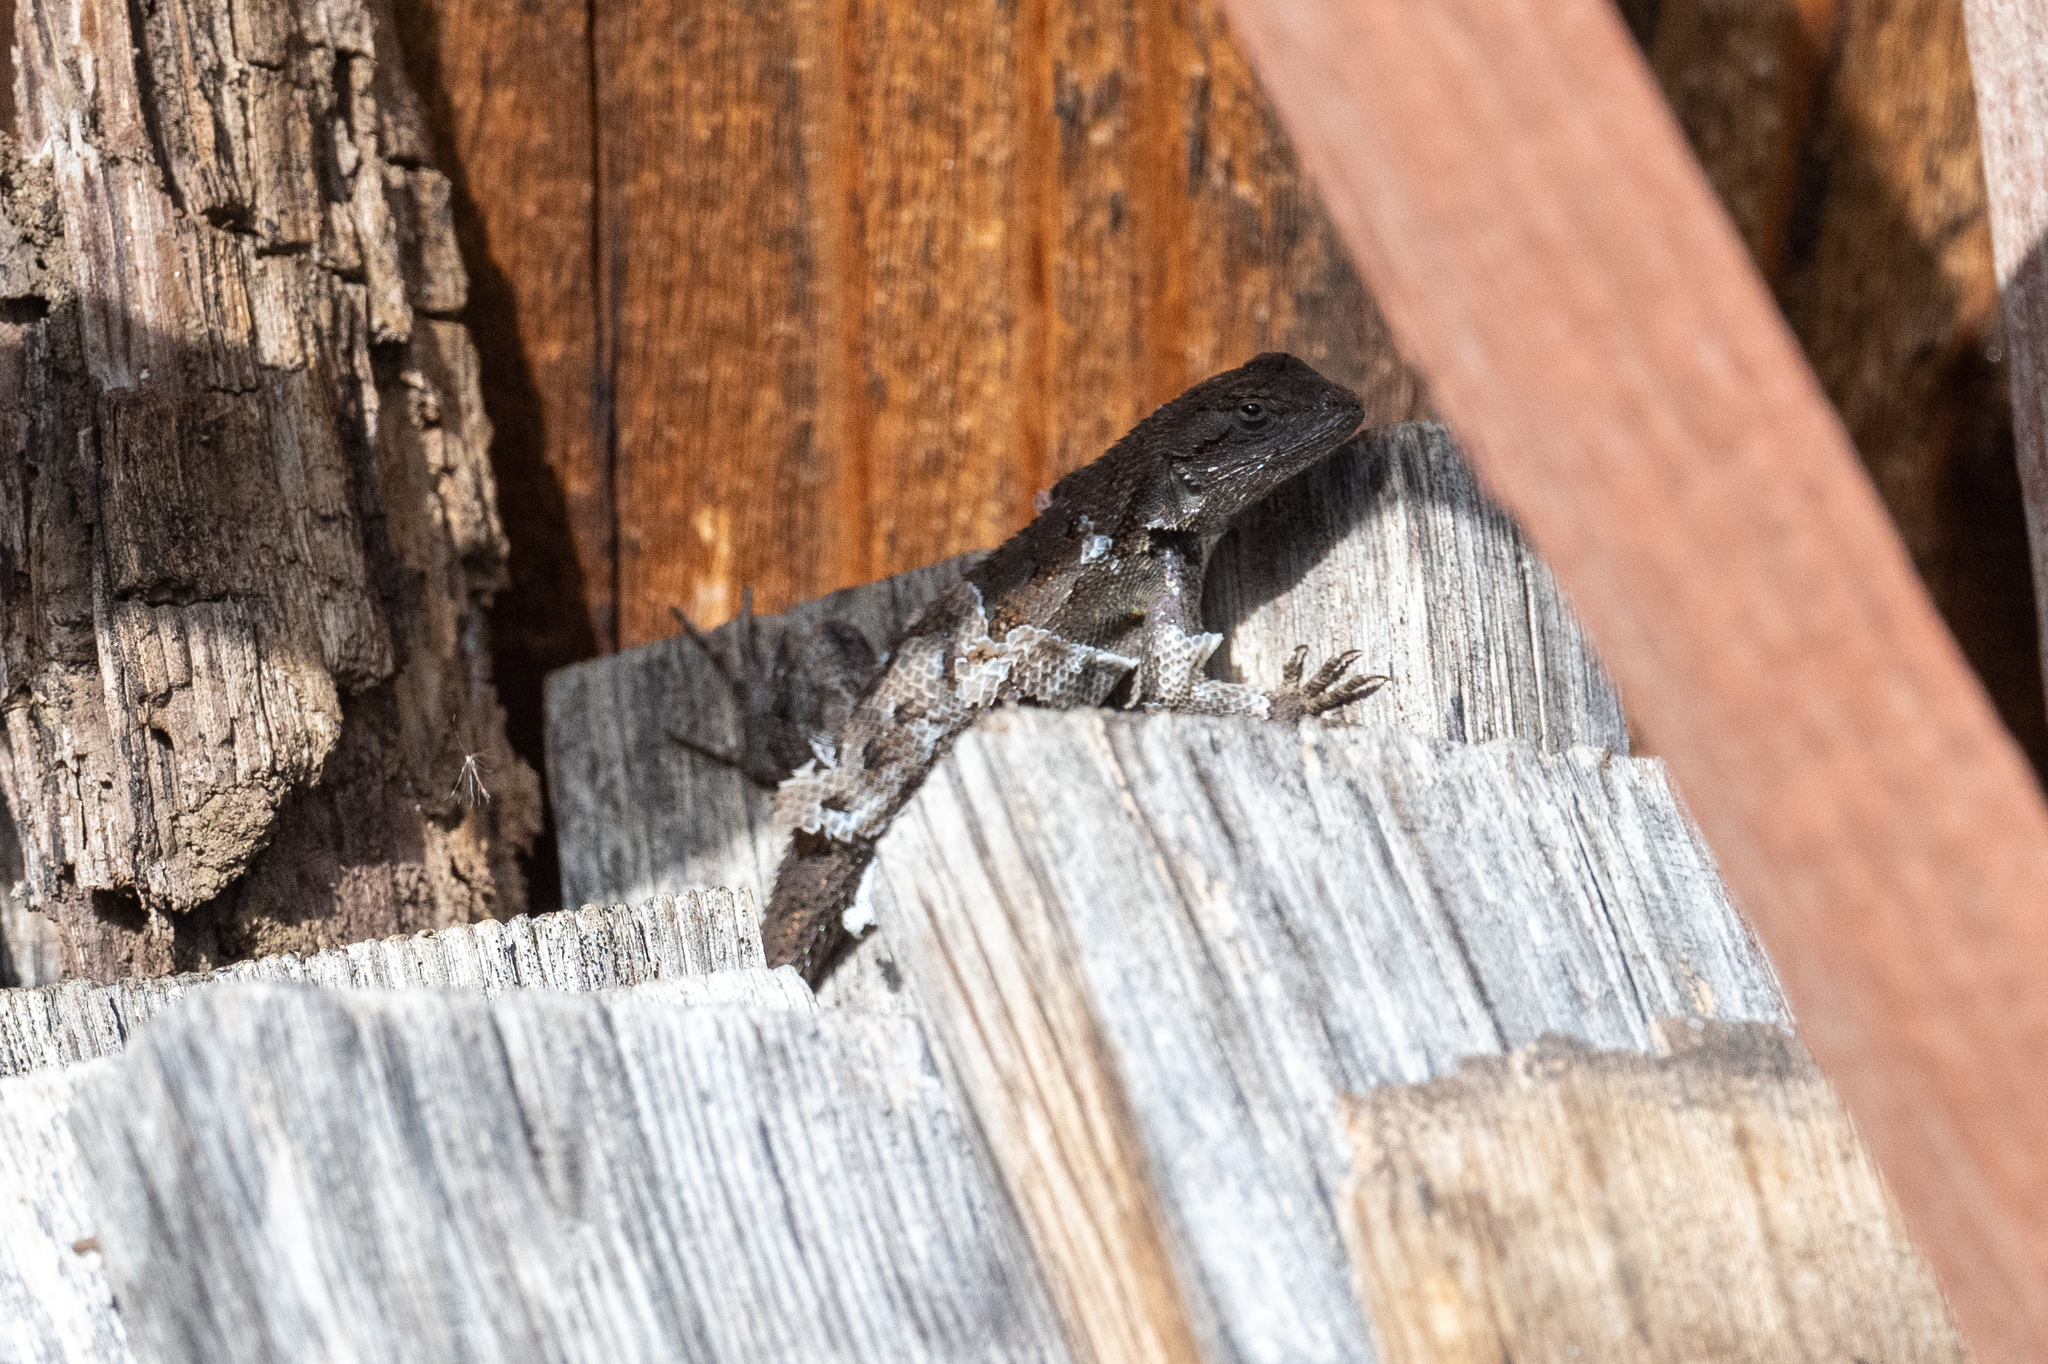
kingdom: Animalia
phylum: Chordata
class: Squamata
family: Phrynosomatidae
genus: Sceloporus
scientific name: Sceloporus occidentalis
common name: Western fence lizard
